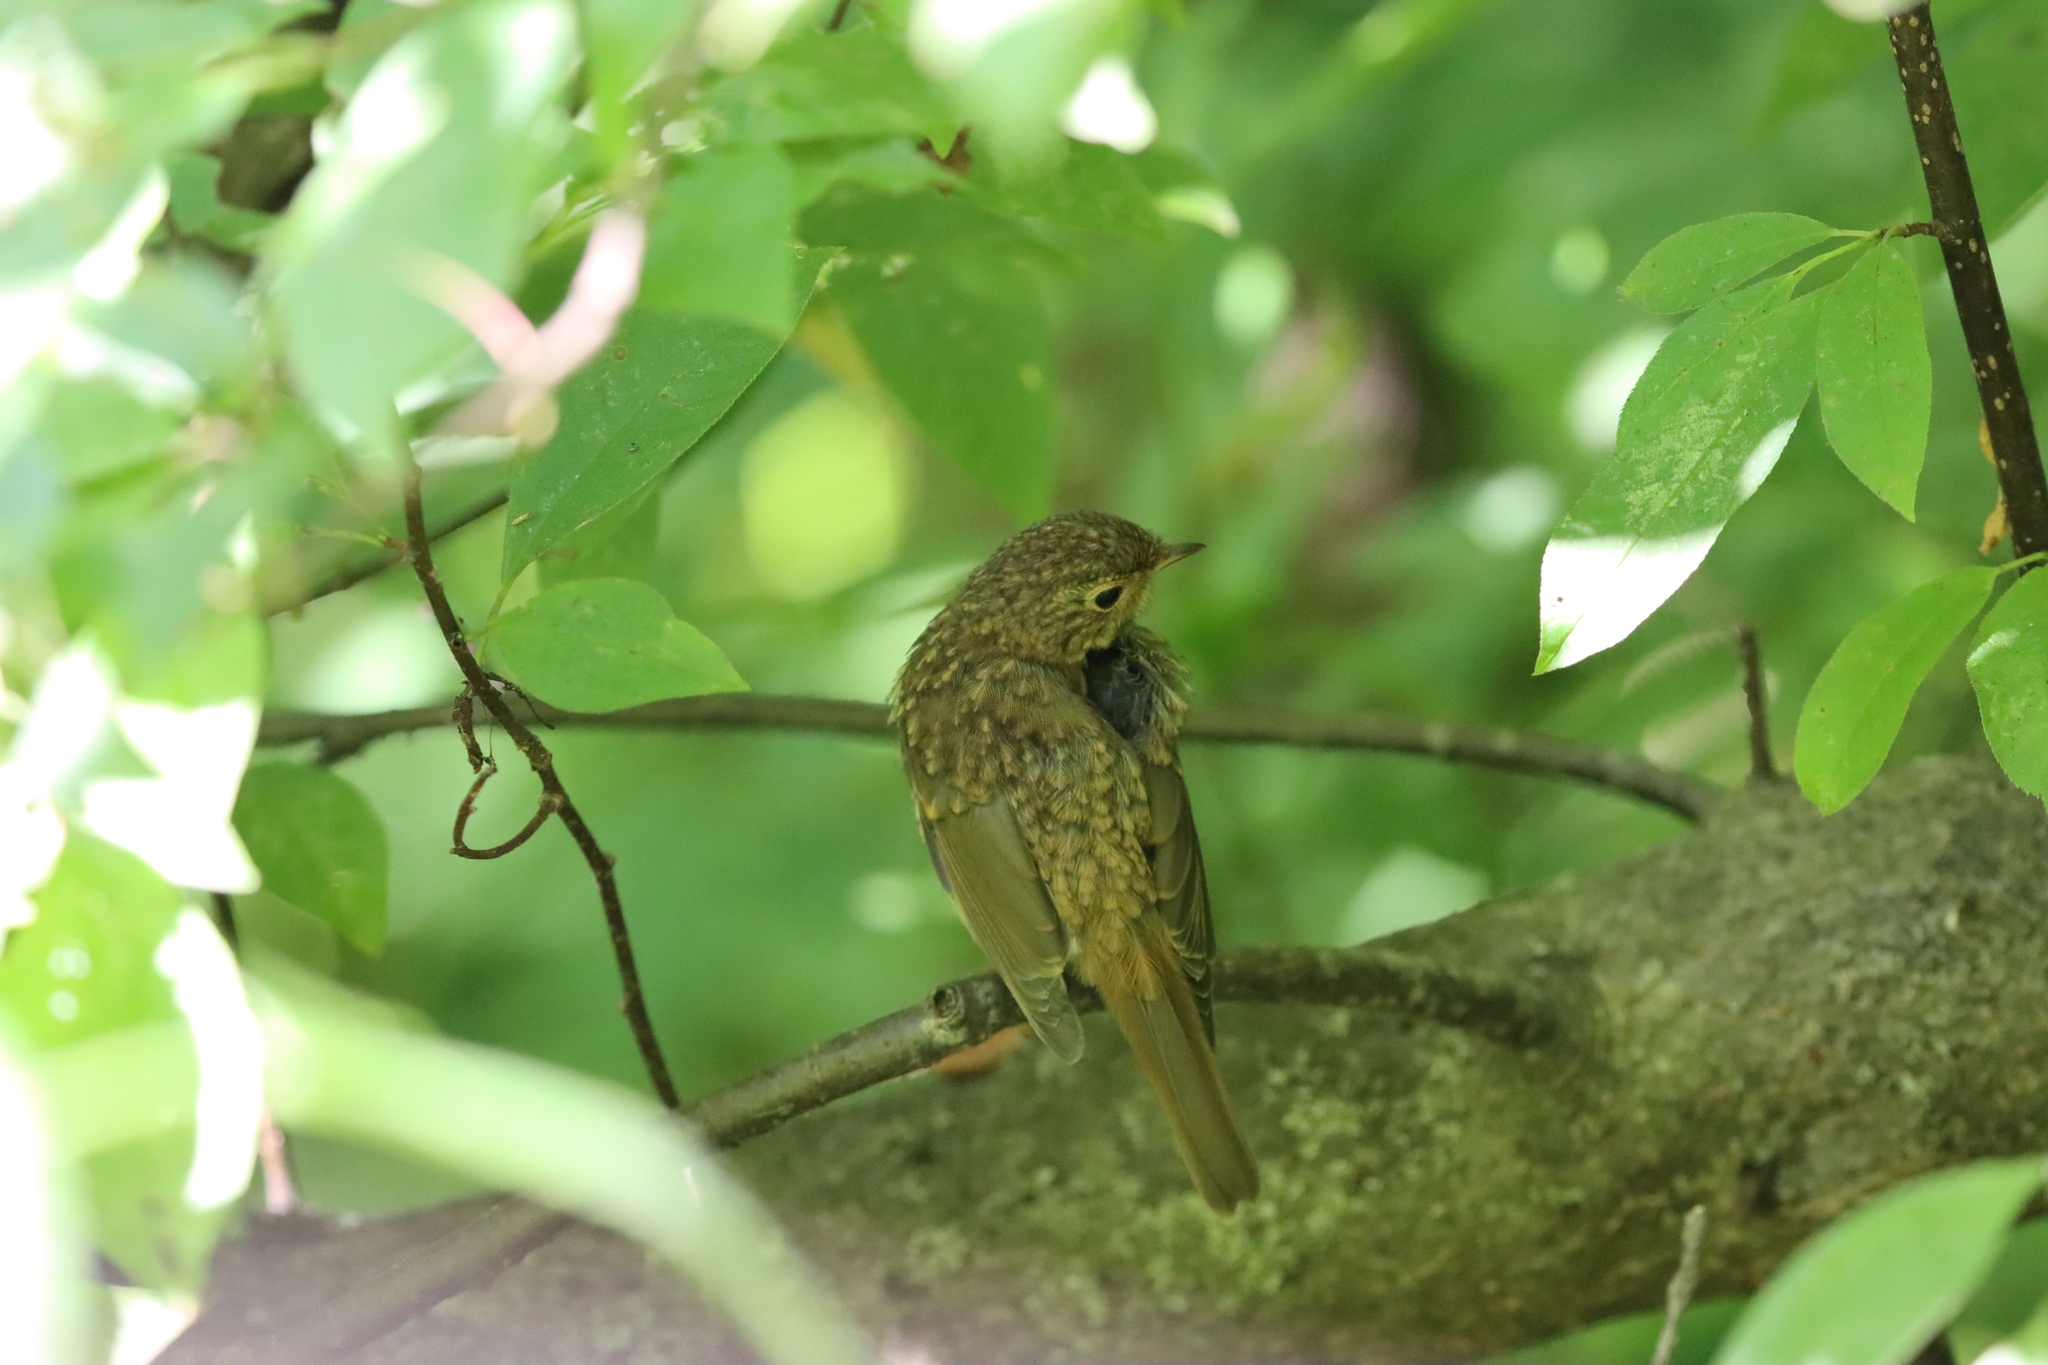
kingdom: Animalia
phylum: Chordata
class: Aves
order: Passeriformes
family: Muscicapidae
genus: Erithacus
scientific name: Erithacus rubecula
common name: European robin
